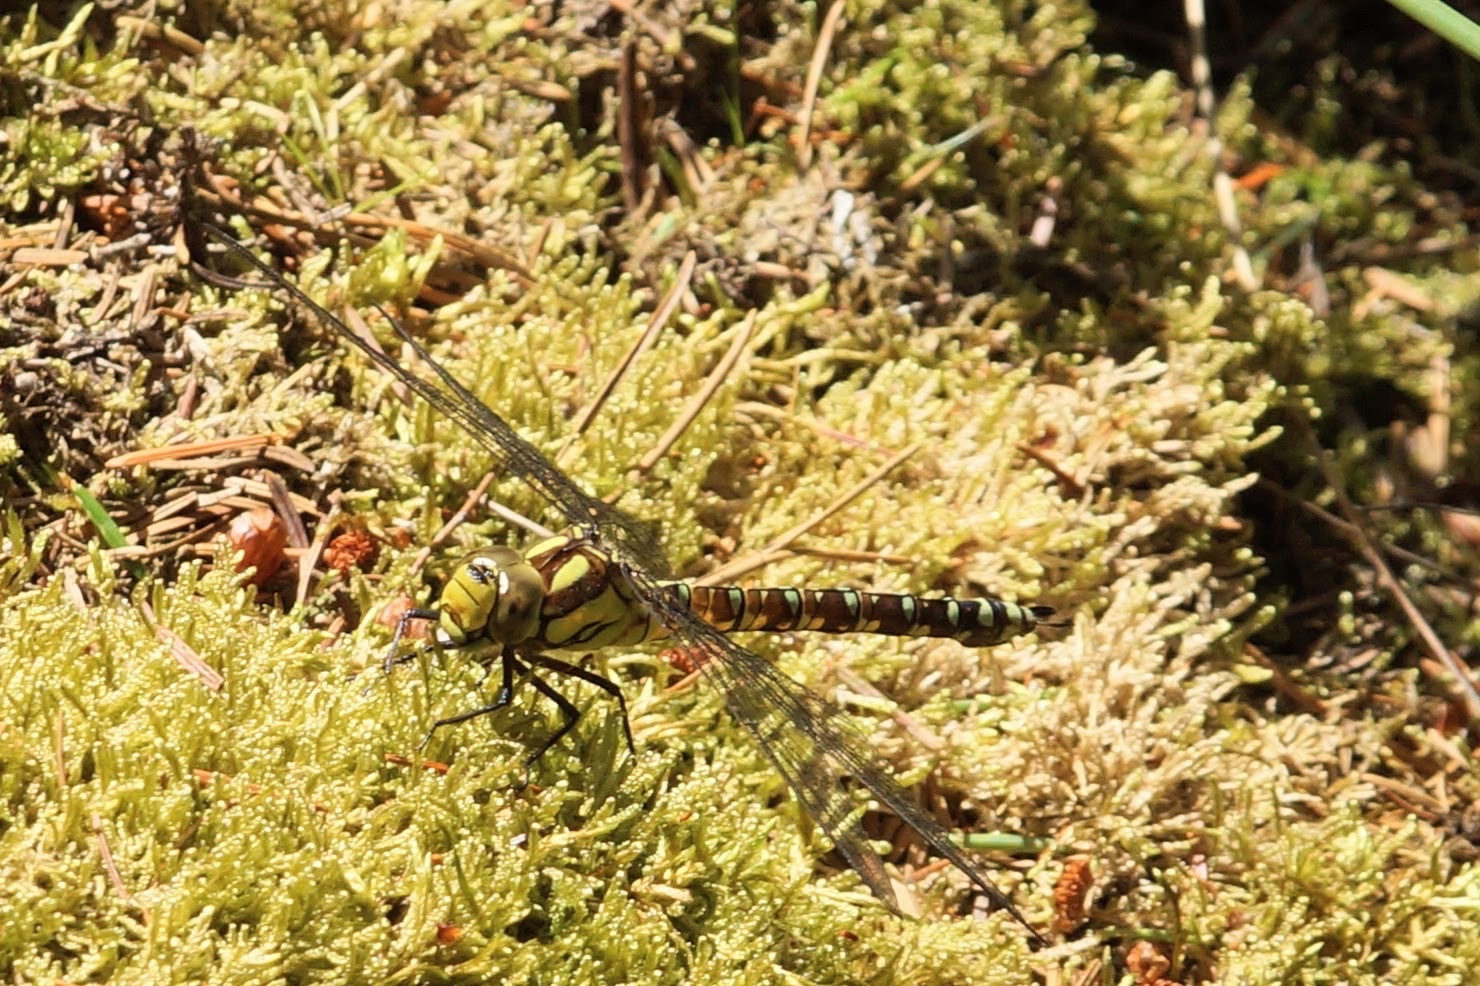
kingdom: Animalia
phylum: Arthropoda
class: Insecta
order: Odonata
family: Aeshnidae
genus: Aeshna
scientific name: Aeshna cyanea
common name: Southern hawker
